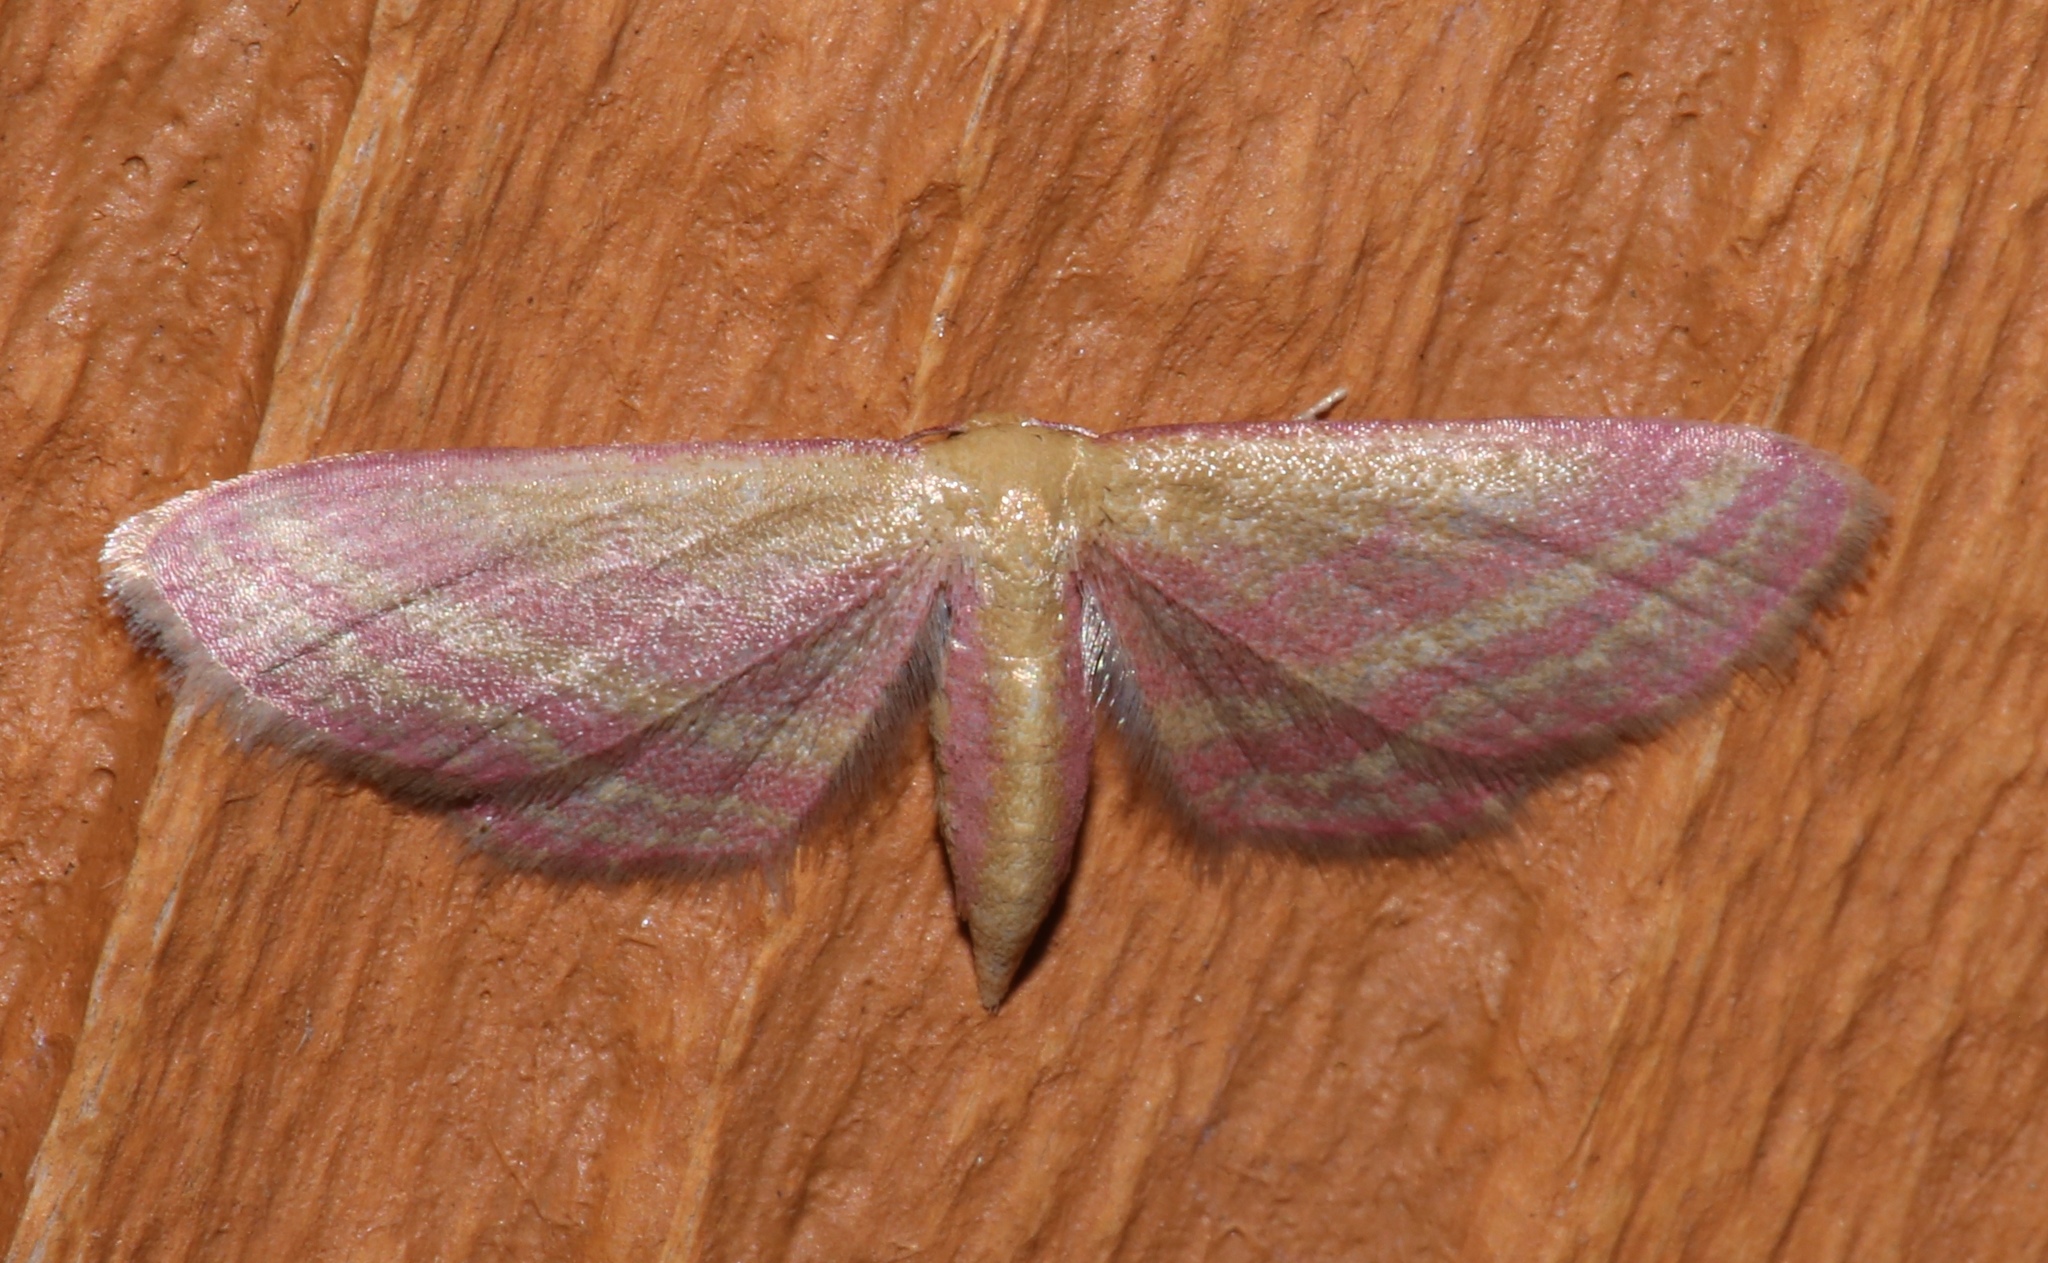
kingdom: Animalia
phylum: Arthropoda
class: Insecta
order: Lepidoptera
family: Geometridae
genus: Leptostales
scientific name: Leptostales laevitaria
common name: Raspberry wave moth
